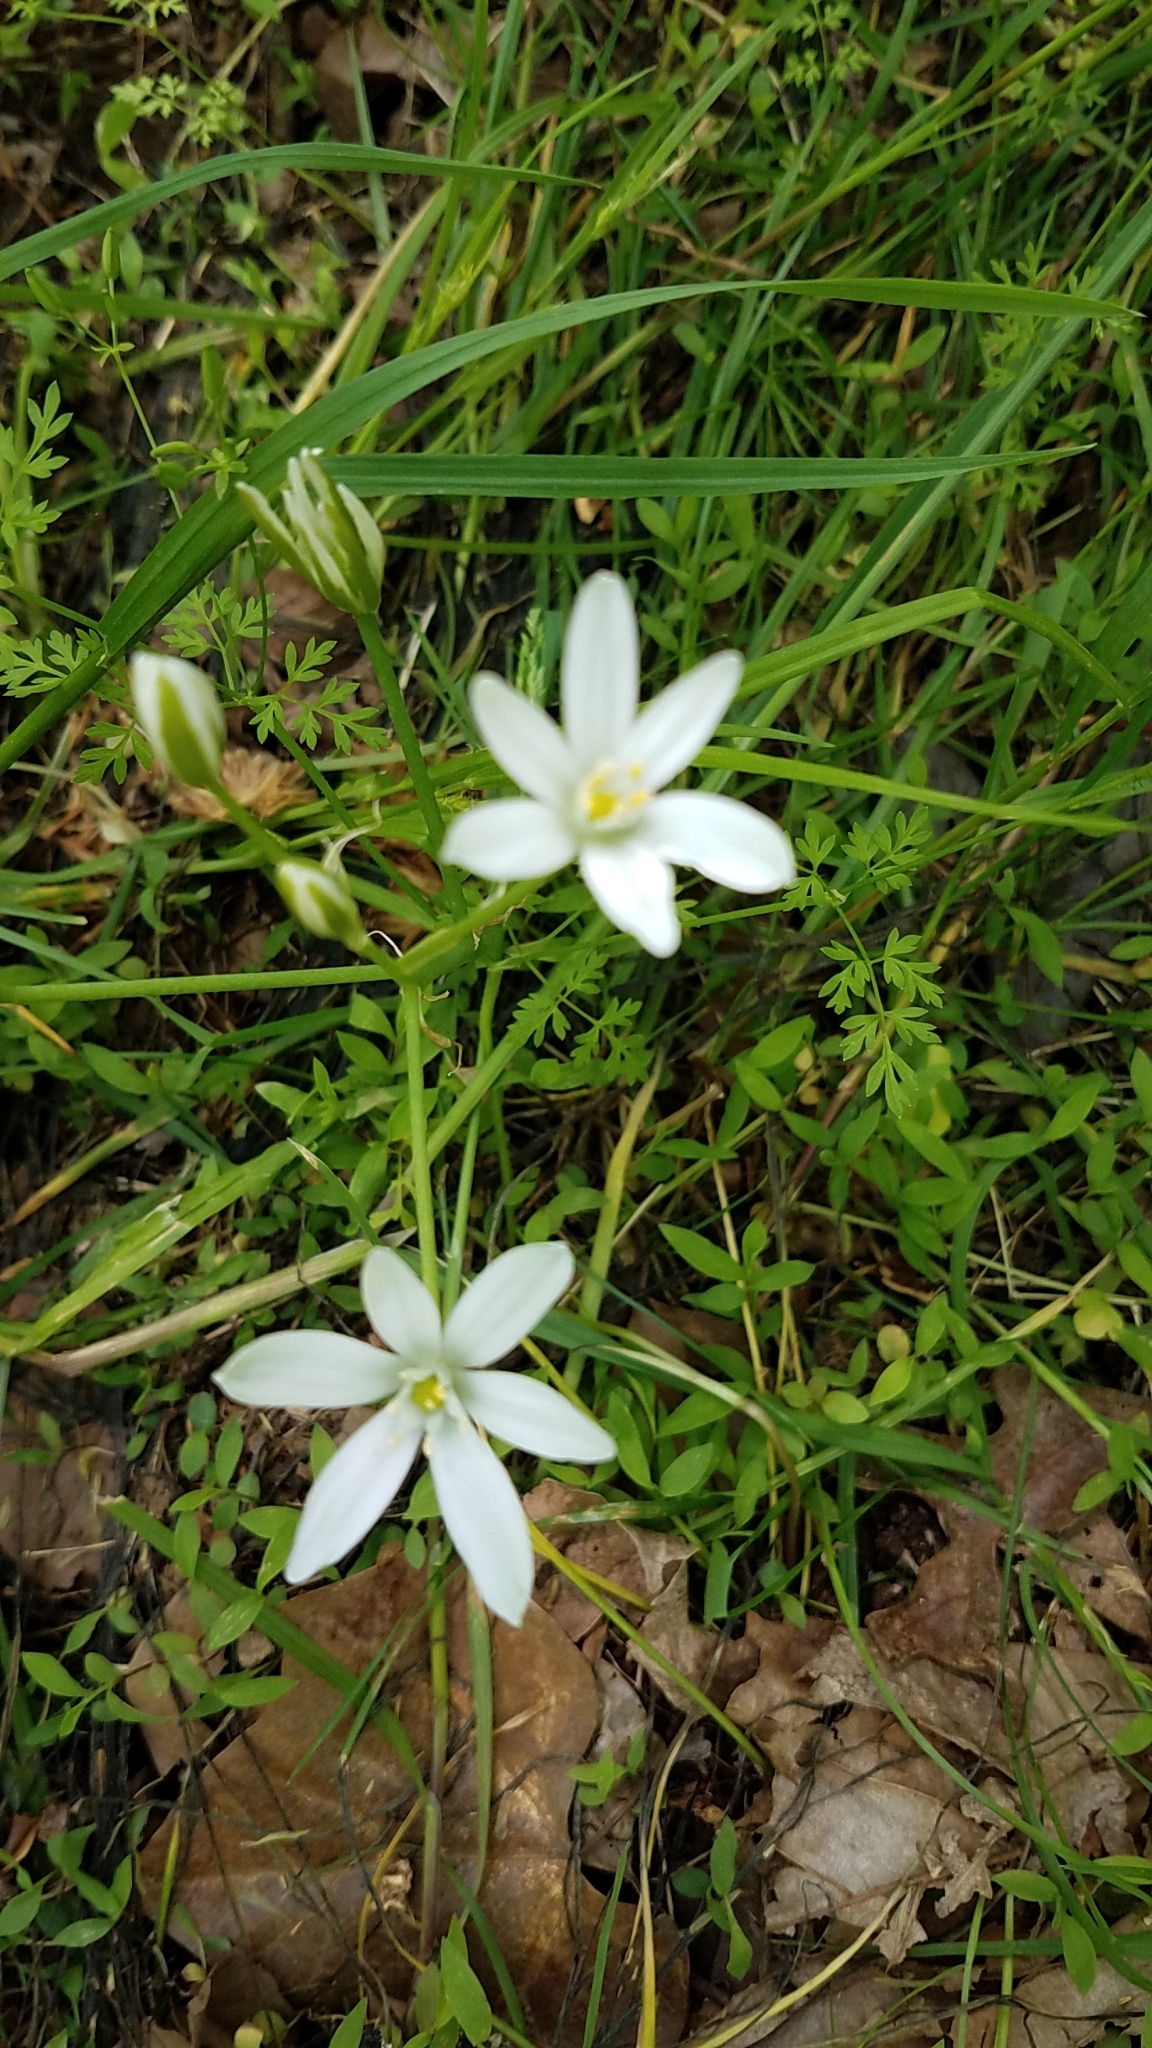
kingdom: Plantae
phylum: Tracheophyta
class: Liliopsida
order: Asparagales
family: Asparagaceae
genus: Ornithogalum
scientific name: Ornithogalum umbellatum
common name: Garden star-of-bethlehem
